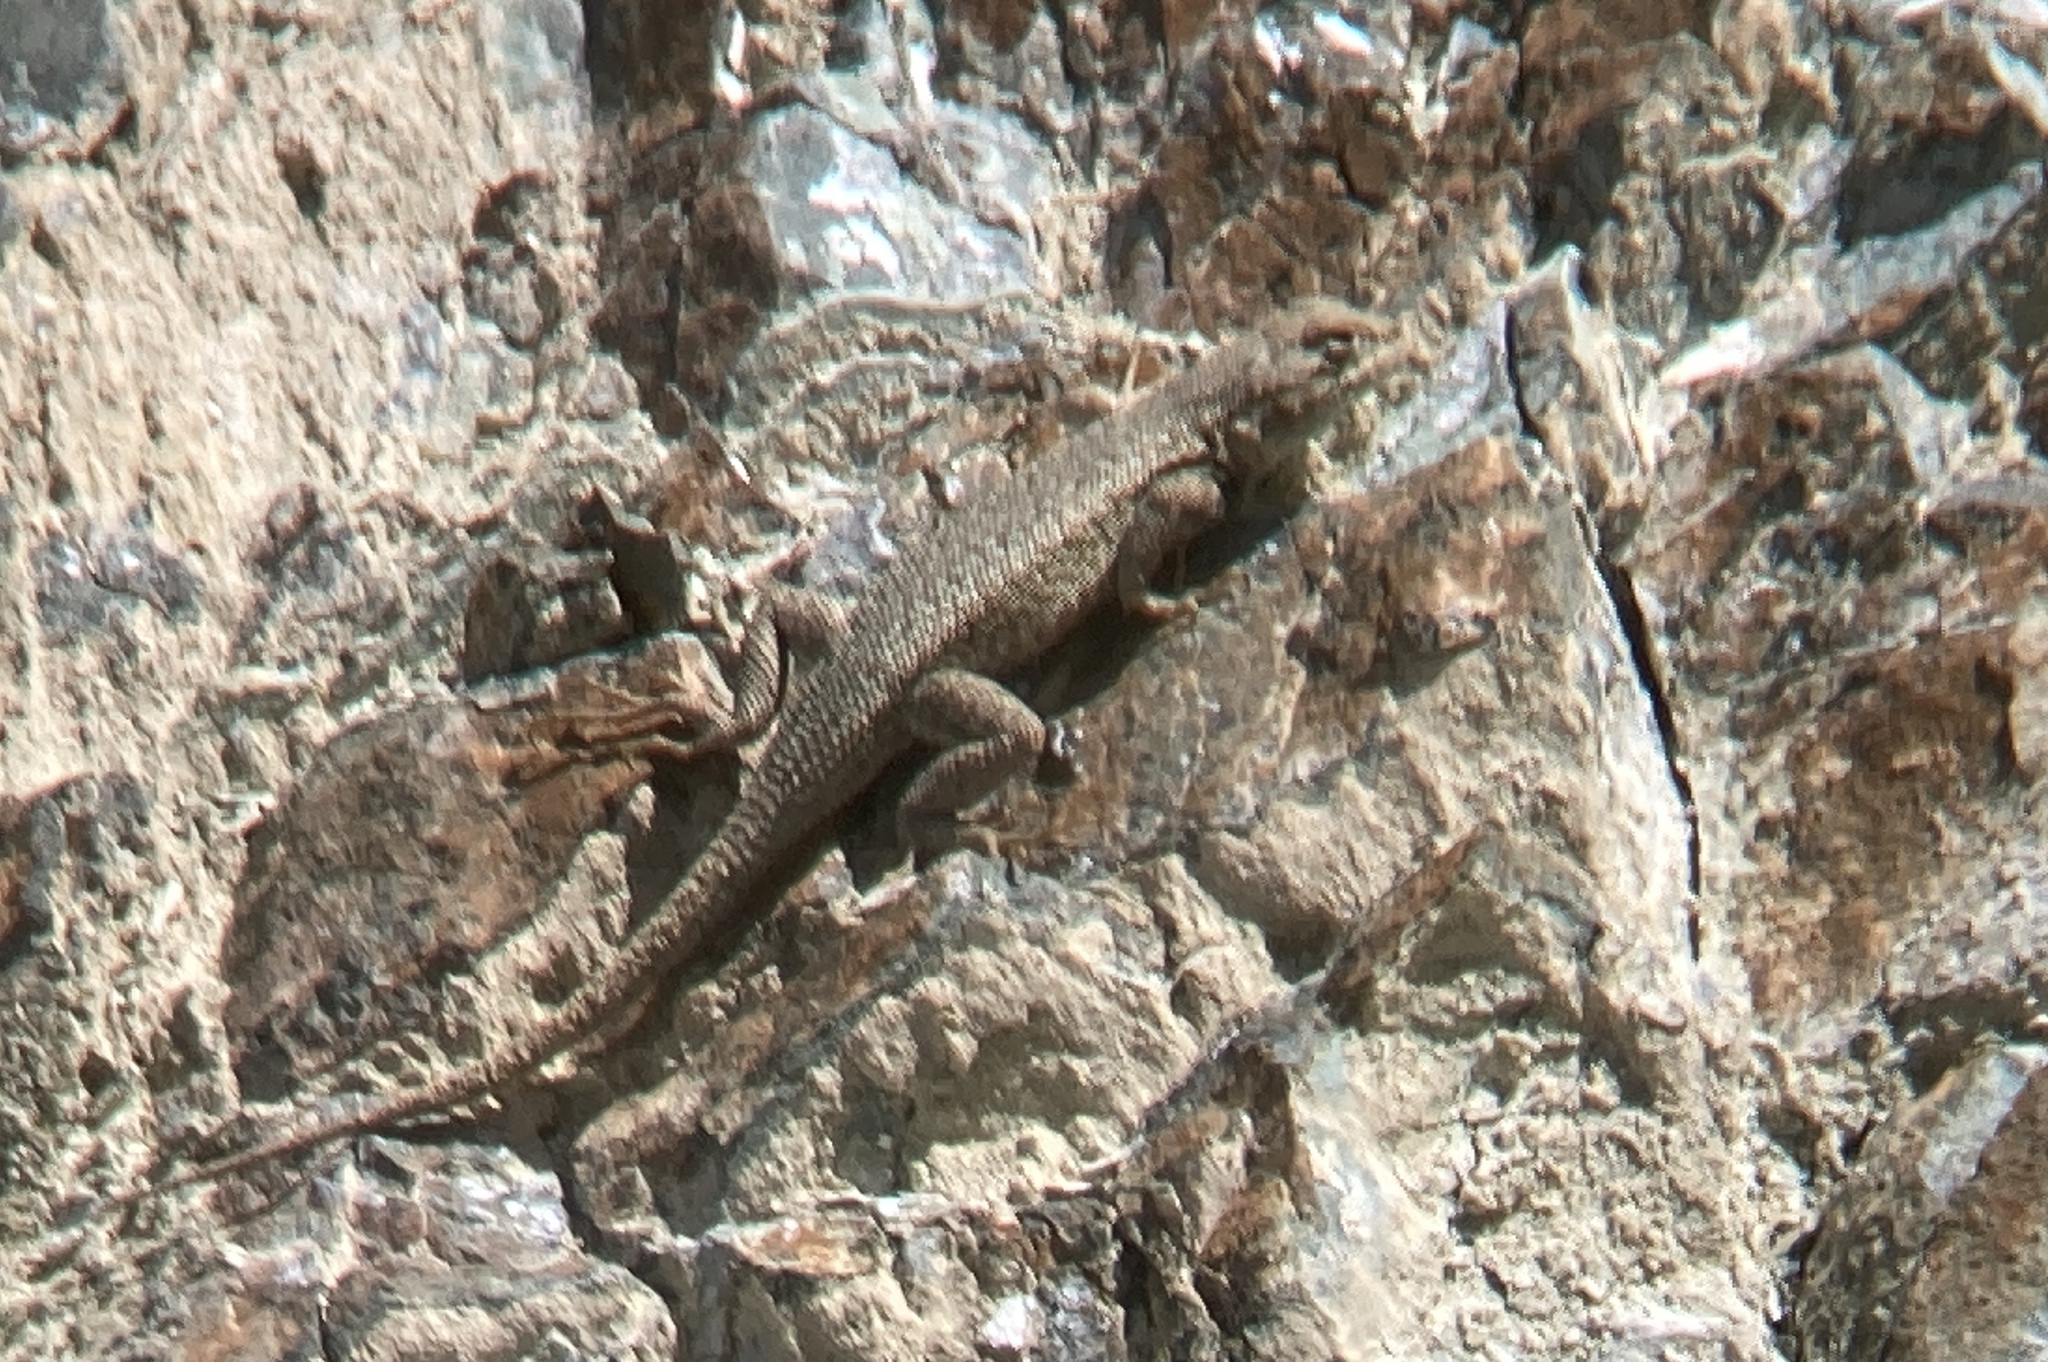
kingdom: Animalia
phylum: Chordata
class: Squamata
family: Phrynosomatidae
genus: Sceloporus
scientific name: Sceloporus graciosus
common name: Sagebrush lizard
